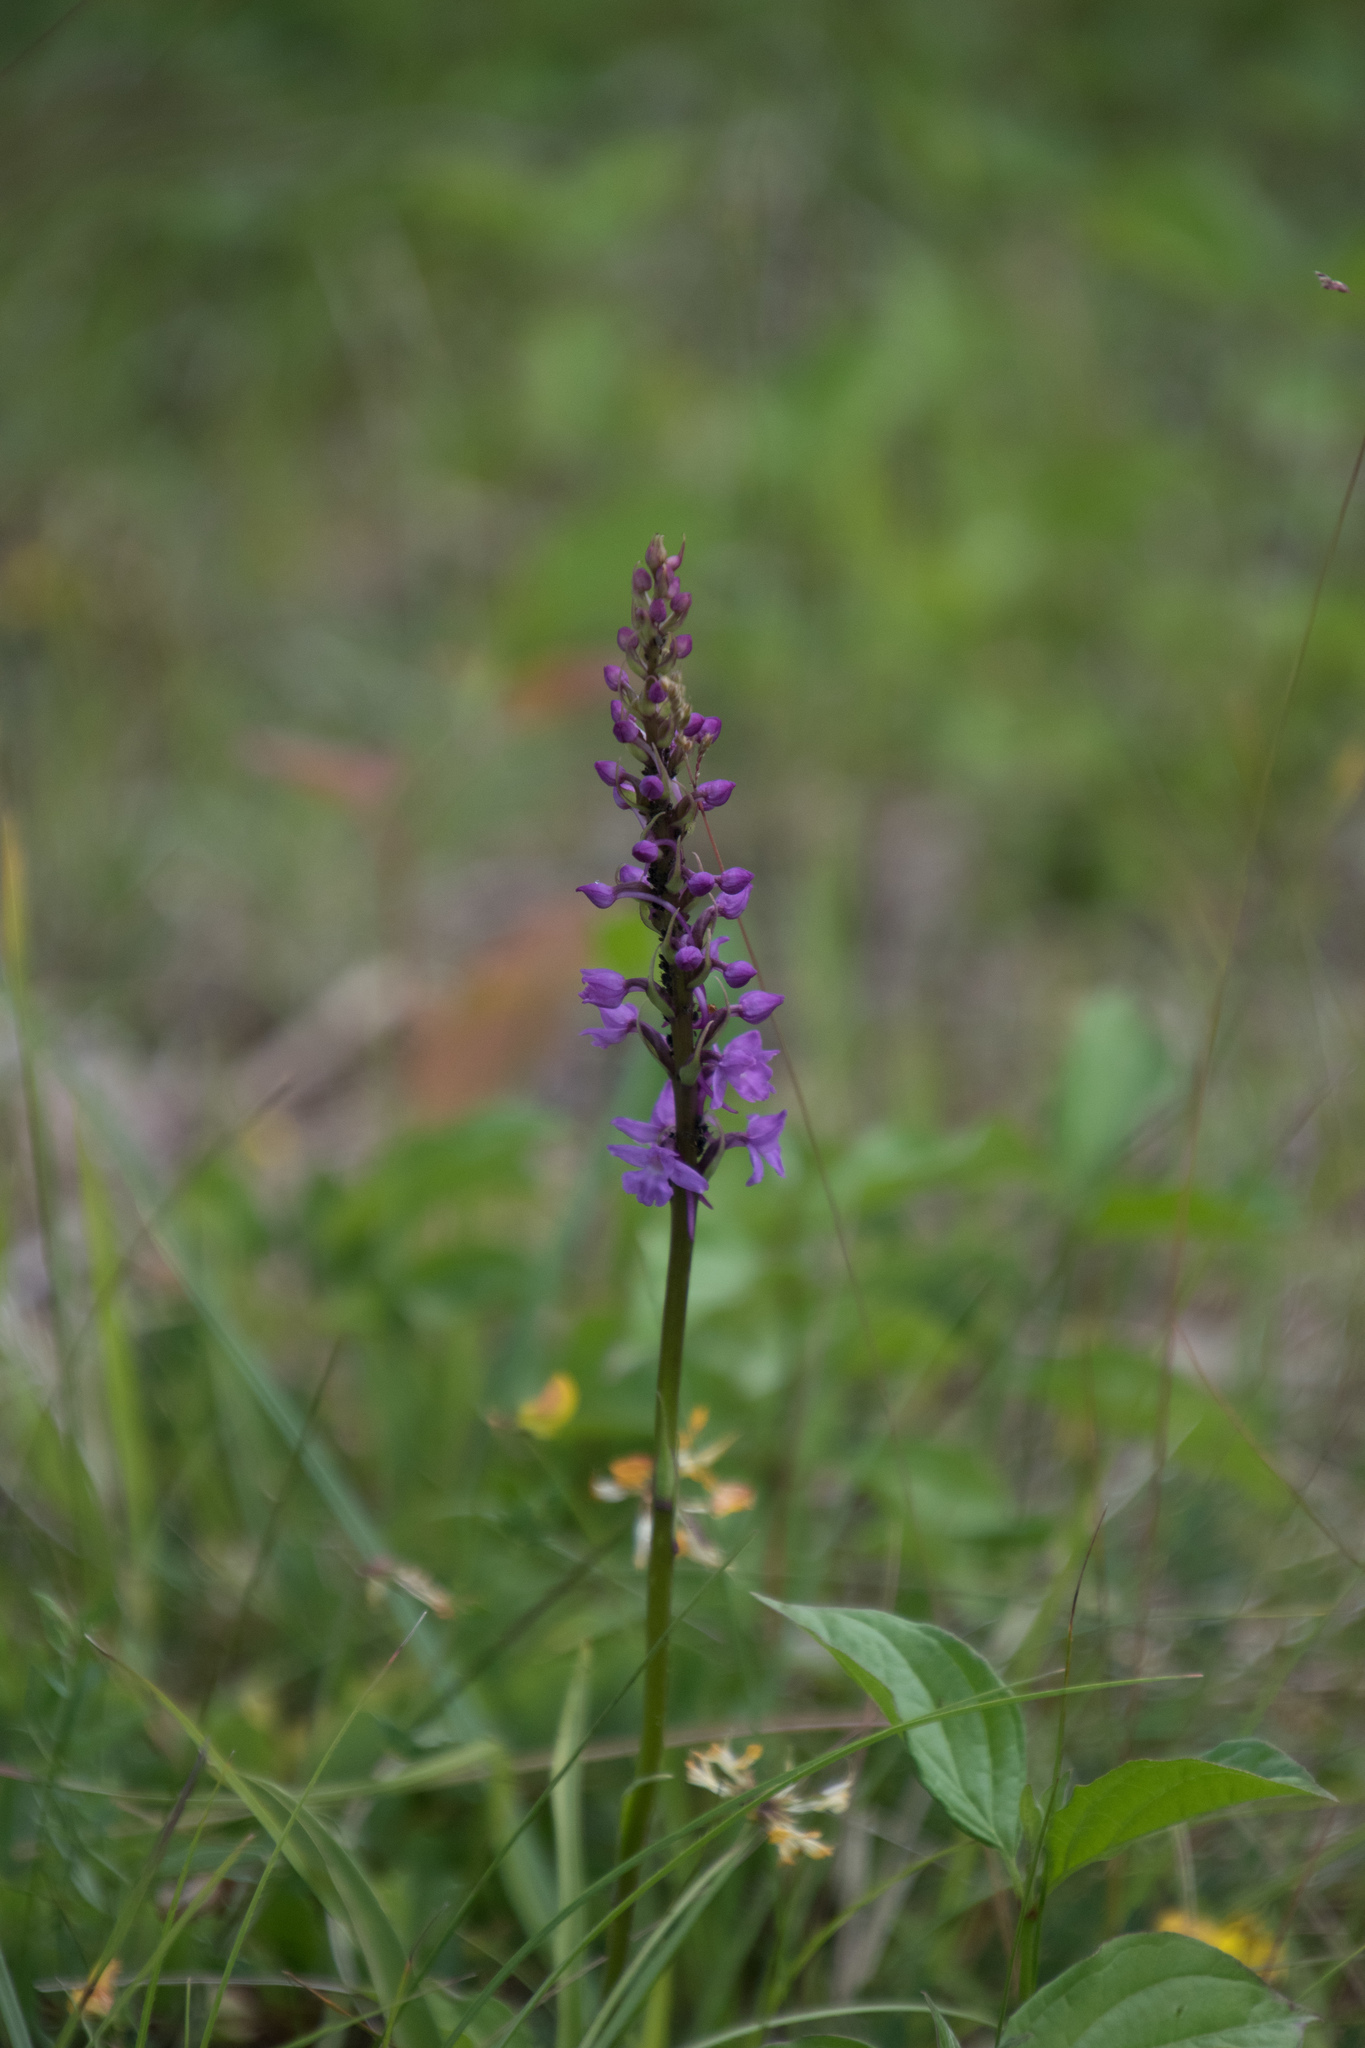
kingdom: Plantae
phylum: Tracheophyta
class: Liliopsida
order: Asparagales
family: Orchidaceae
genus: Gymnadenia
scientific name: Gymnadenia conopsea
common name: Fragrant orchid
